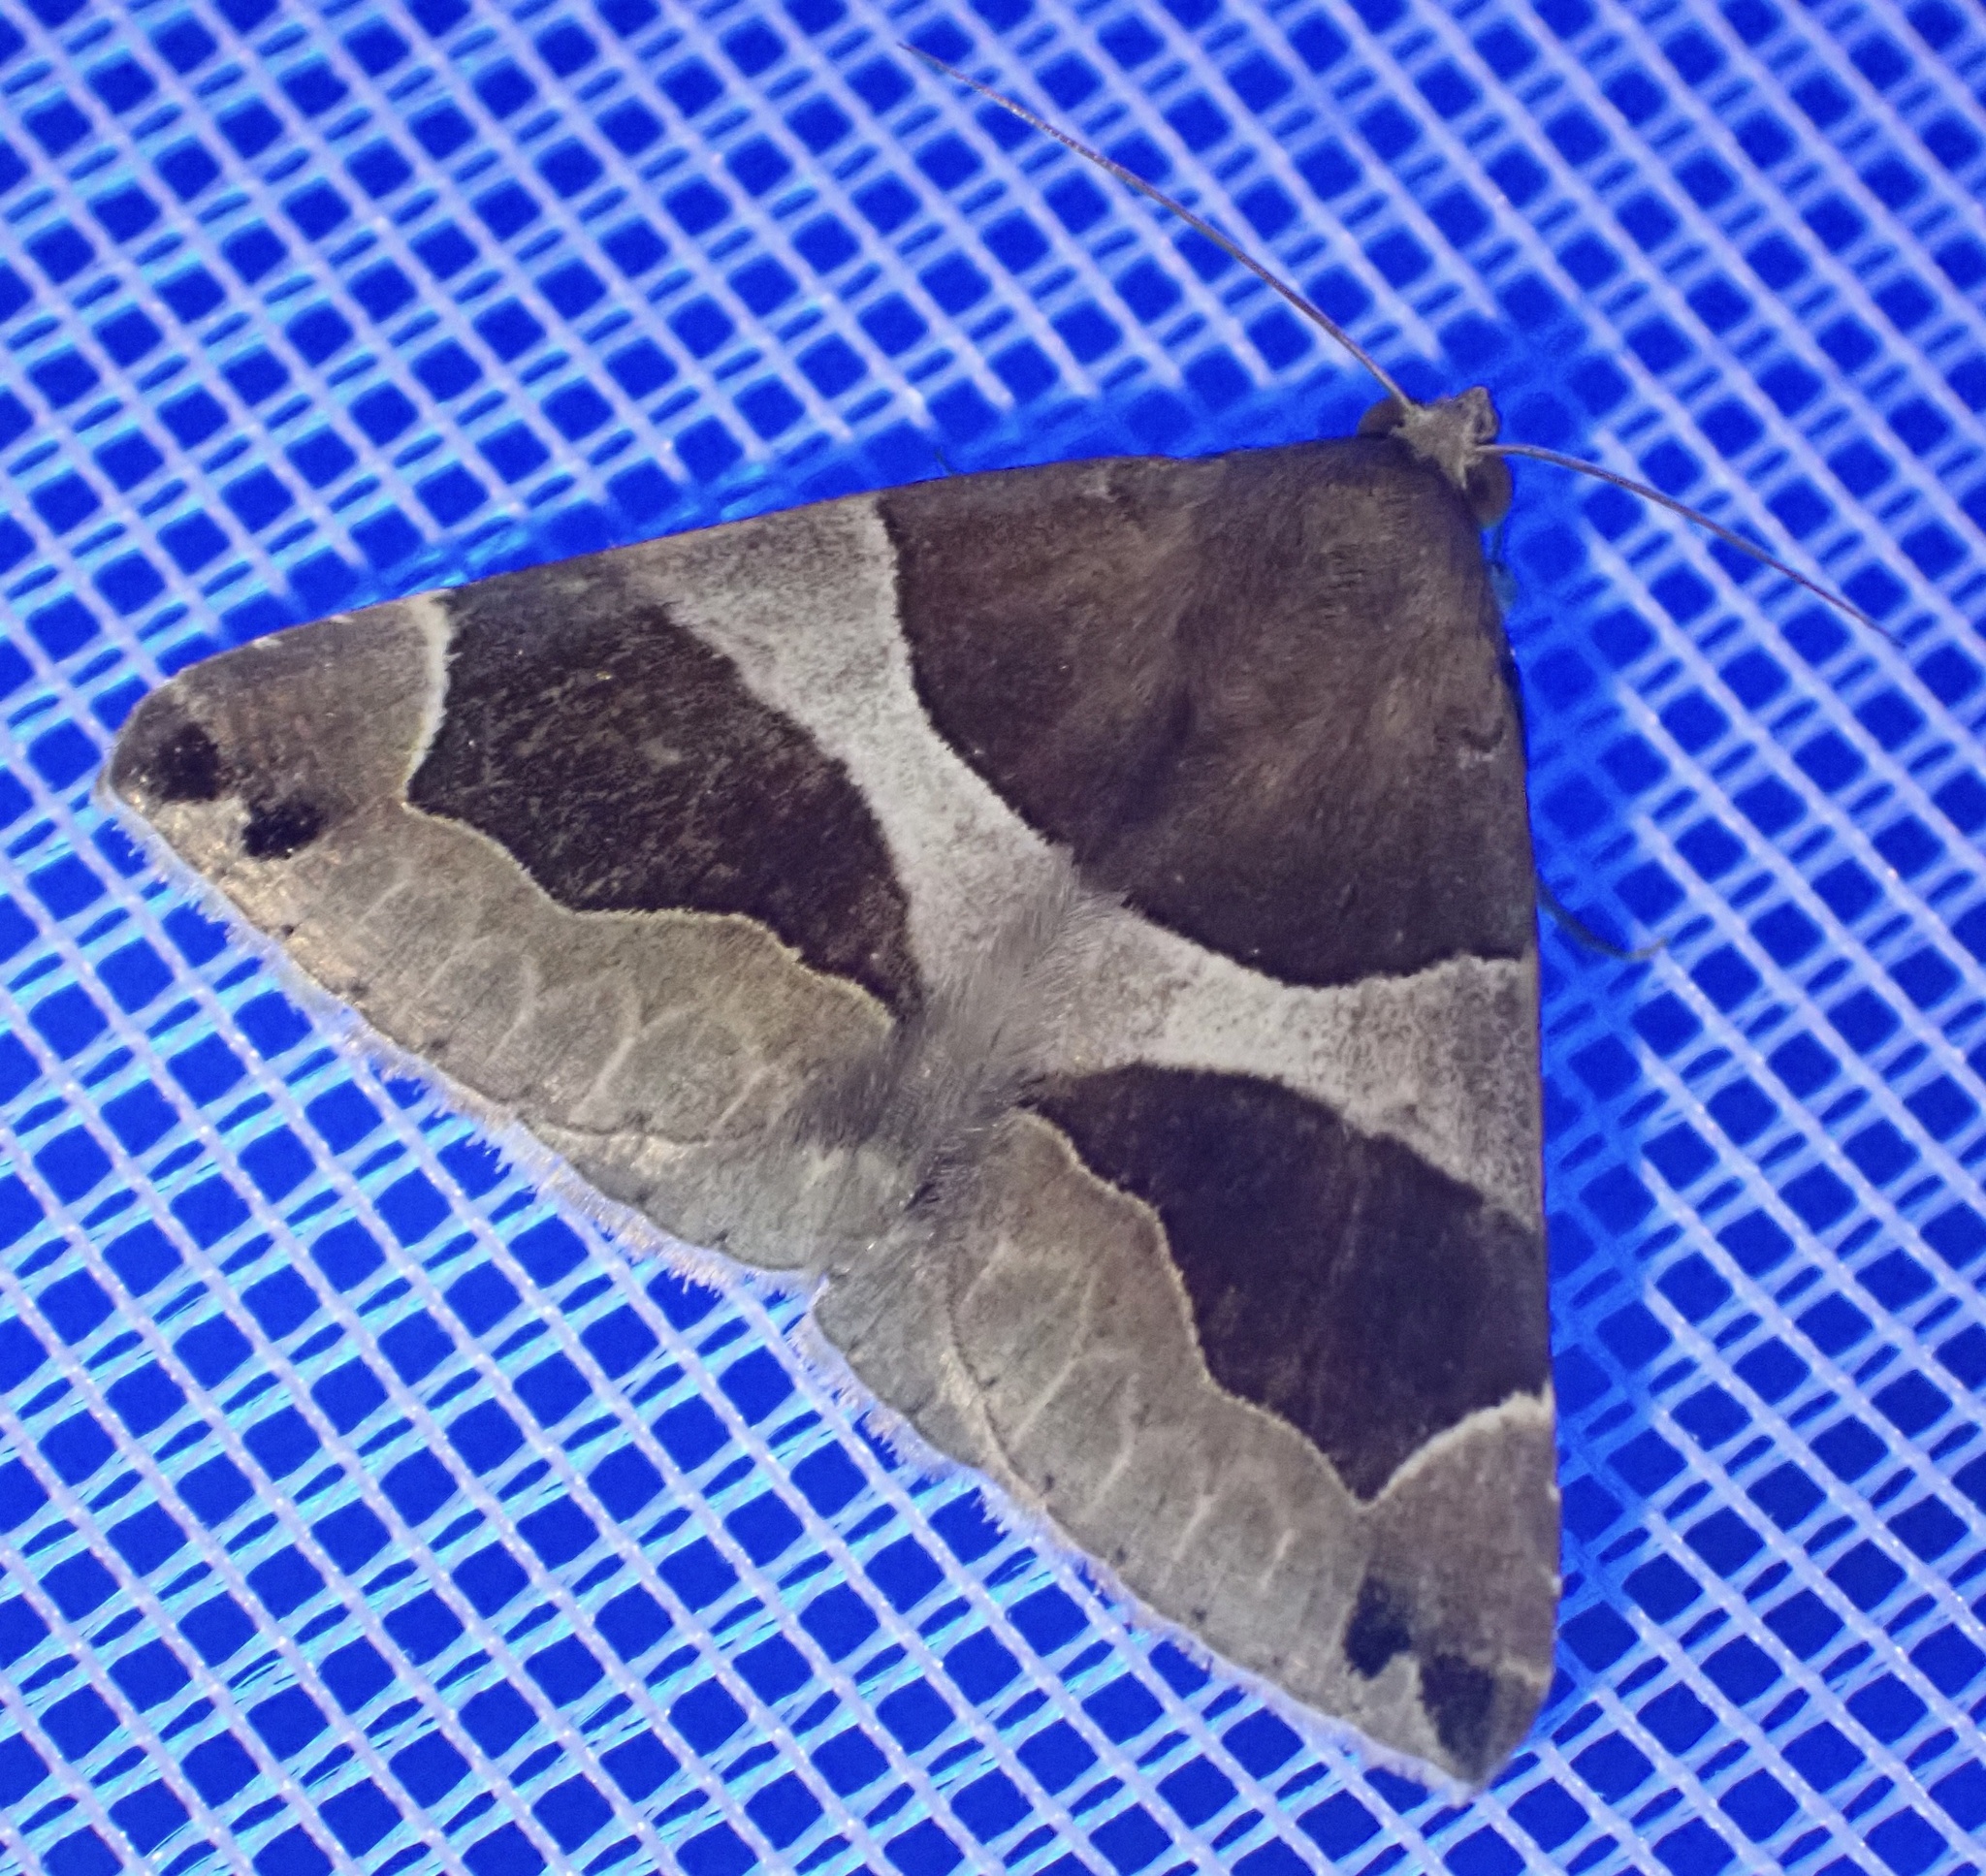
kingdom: Animalia
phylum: Arthropoda
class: Insecta
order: Lepidoptera
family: Erebidae
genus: Dysgonia
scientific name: Dysgonia algira
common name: Passenger
